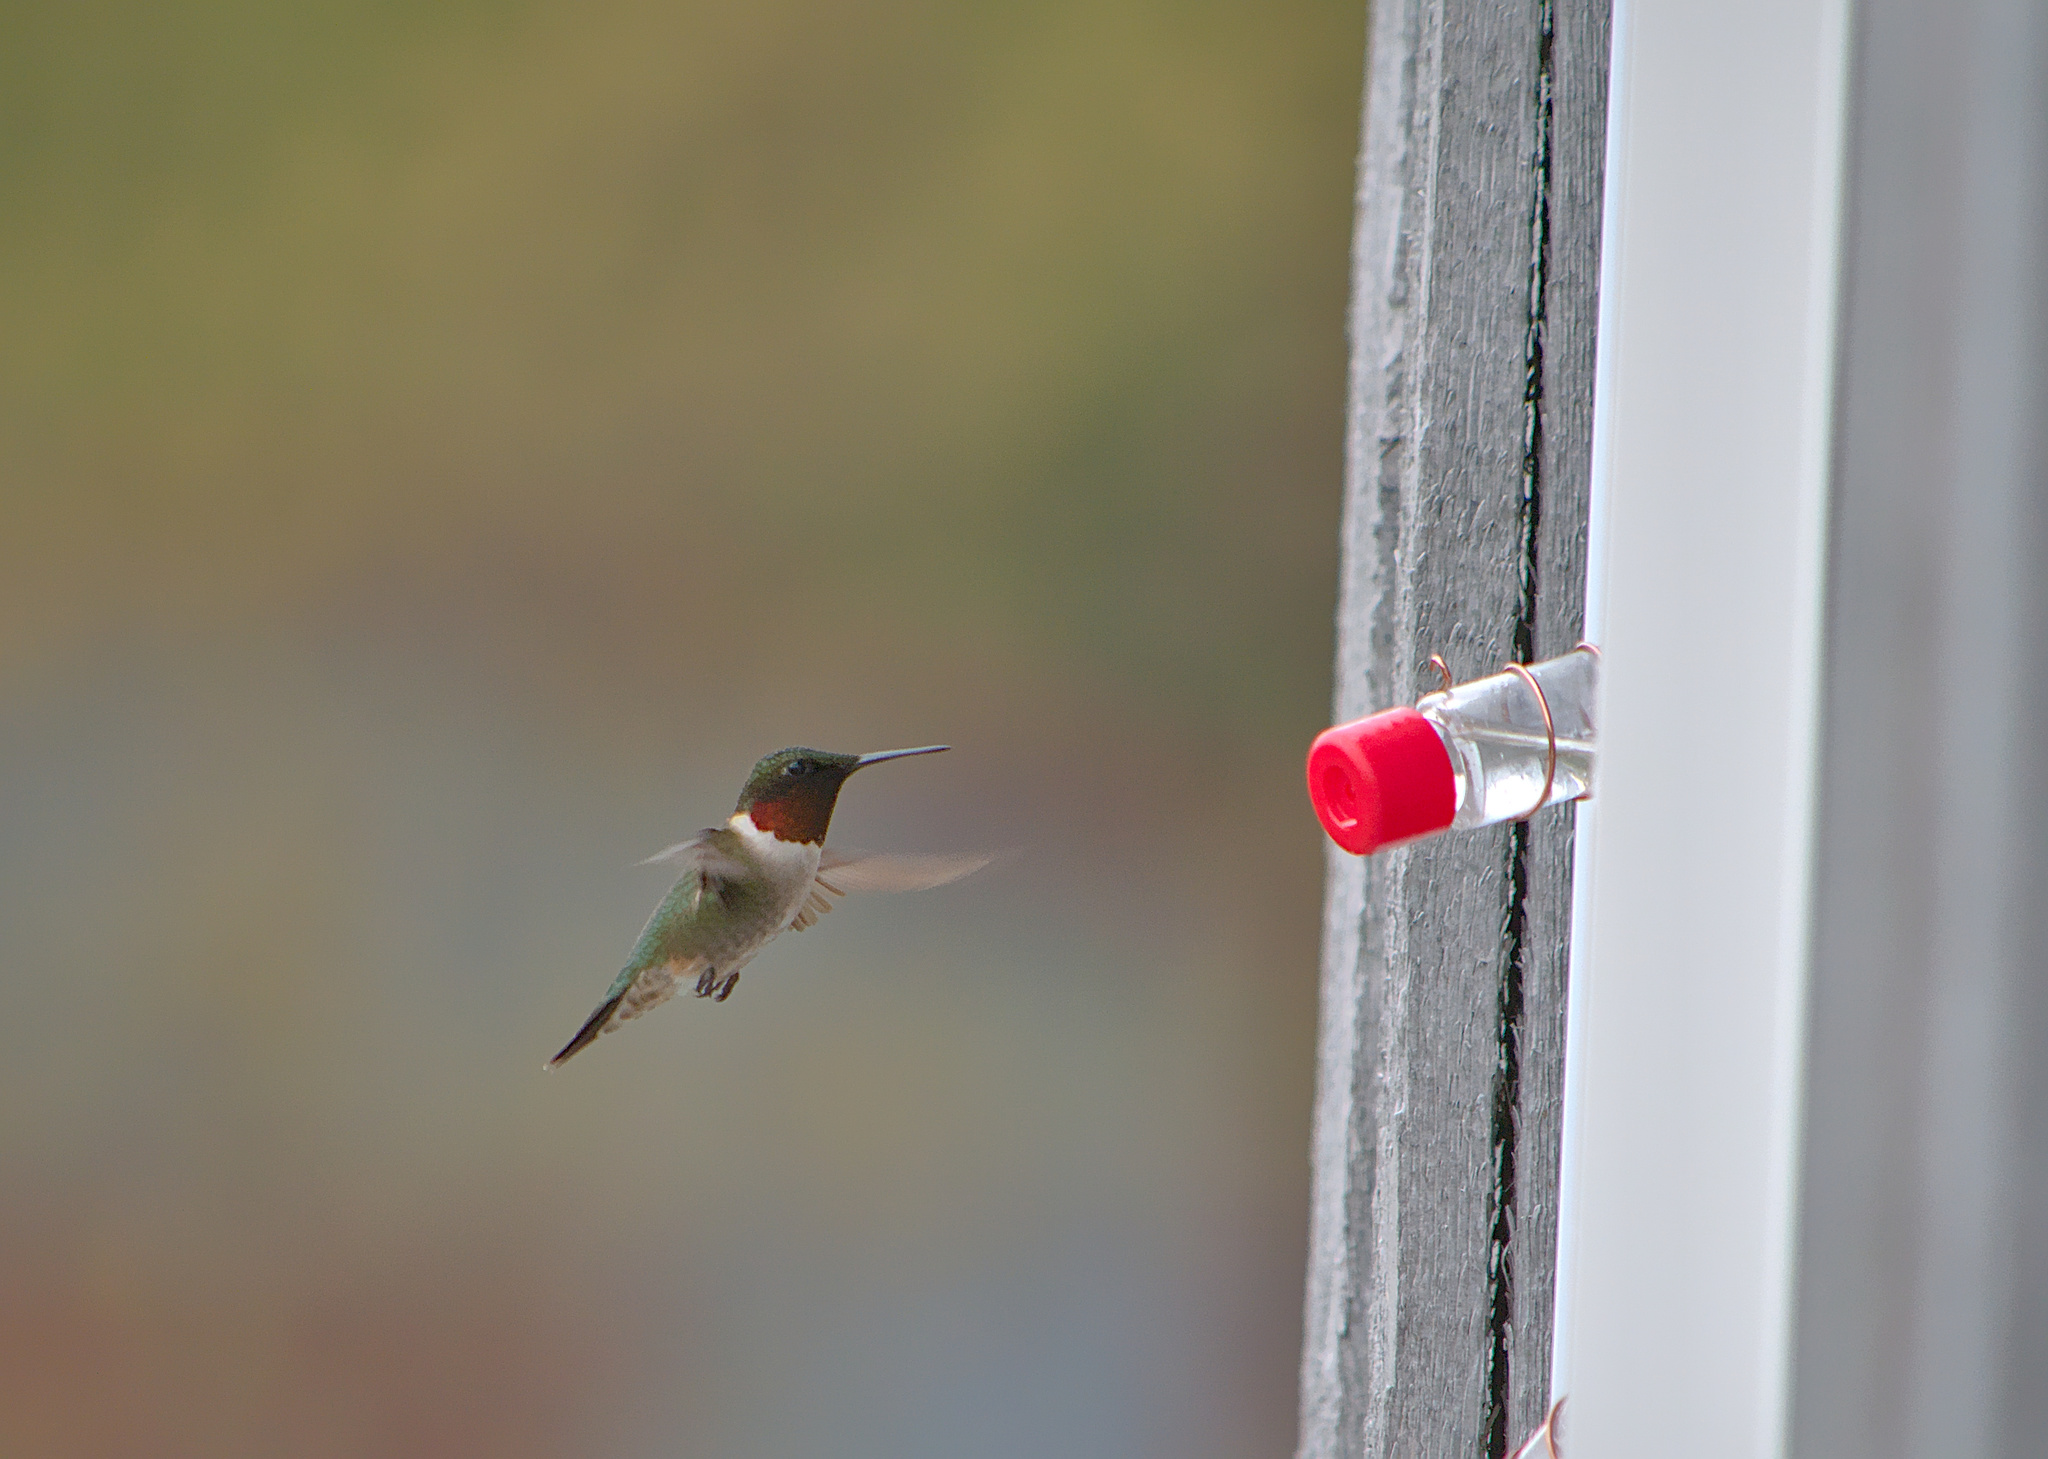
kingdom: Animalia
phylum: Chordata
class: Aves
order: Apodiformes
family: Trochilidae
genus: Archilochus
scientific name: Archilochus colubris
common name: Ruby-throated hummingbird
